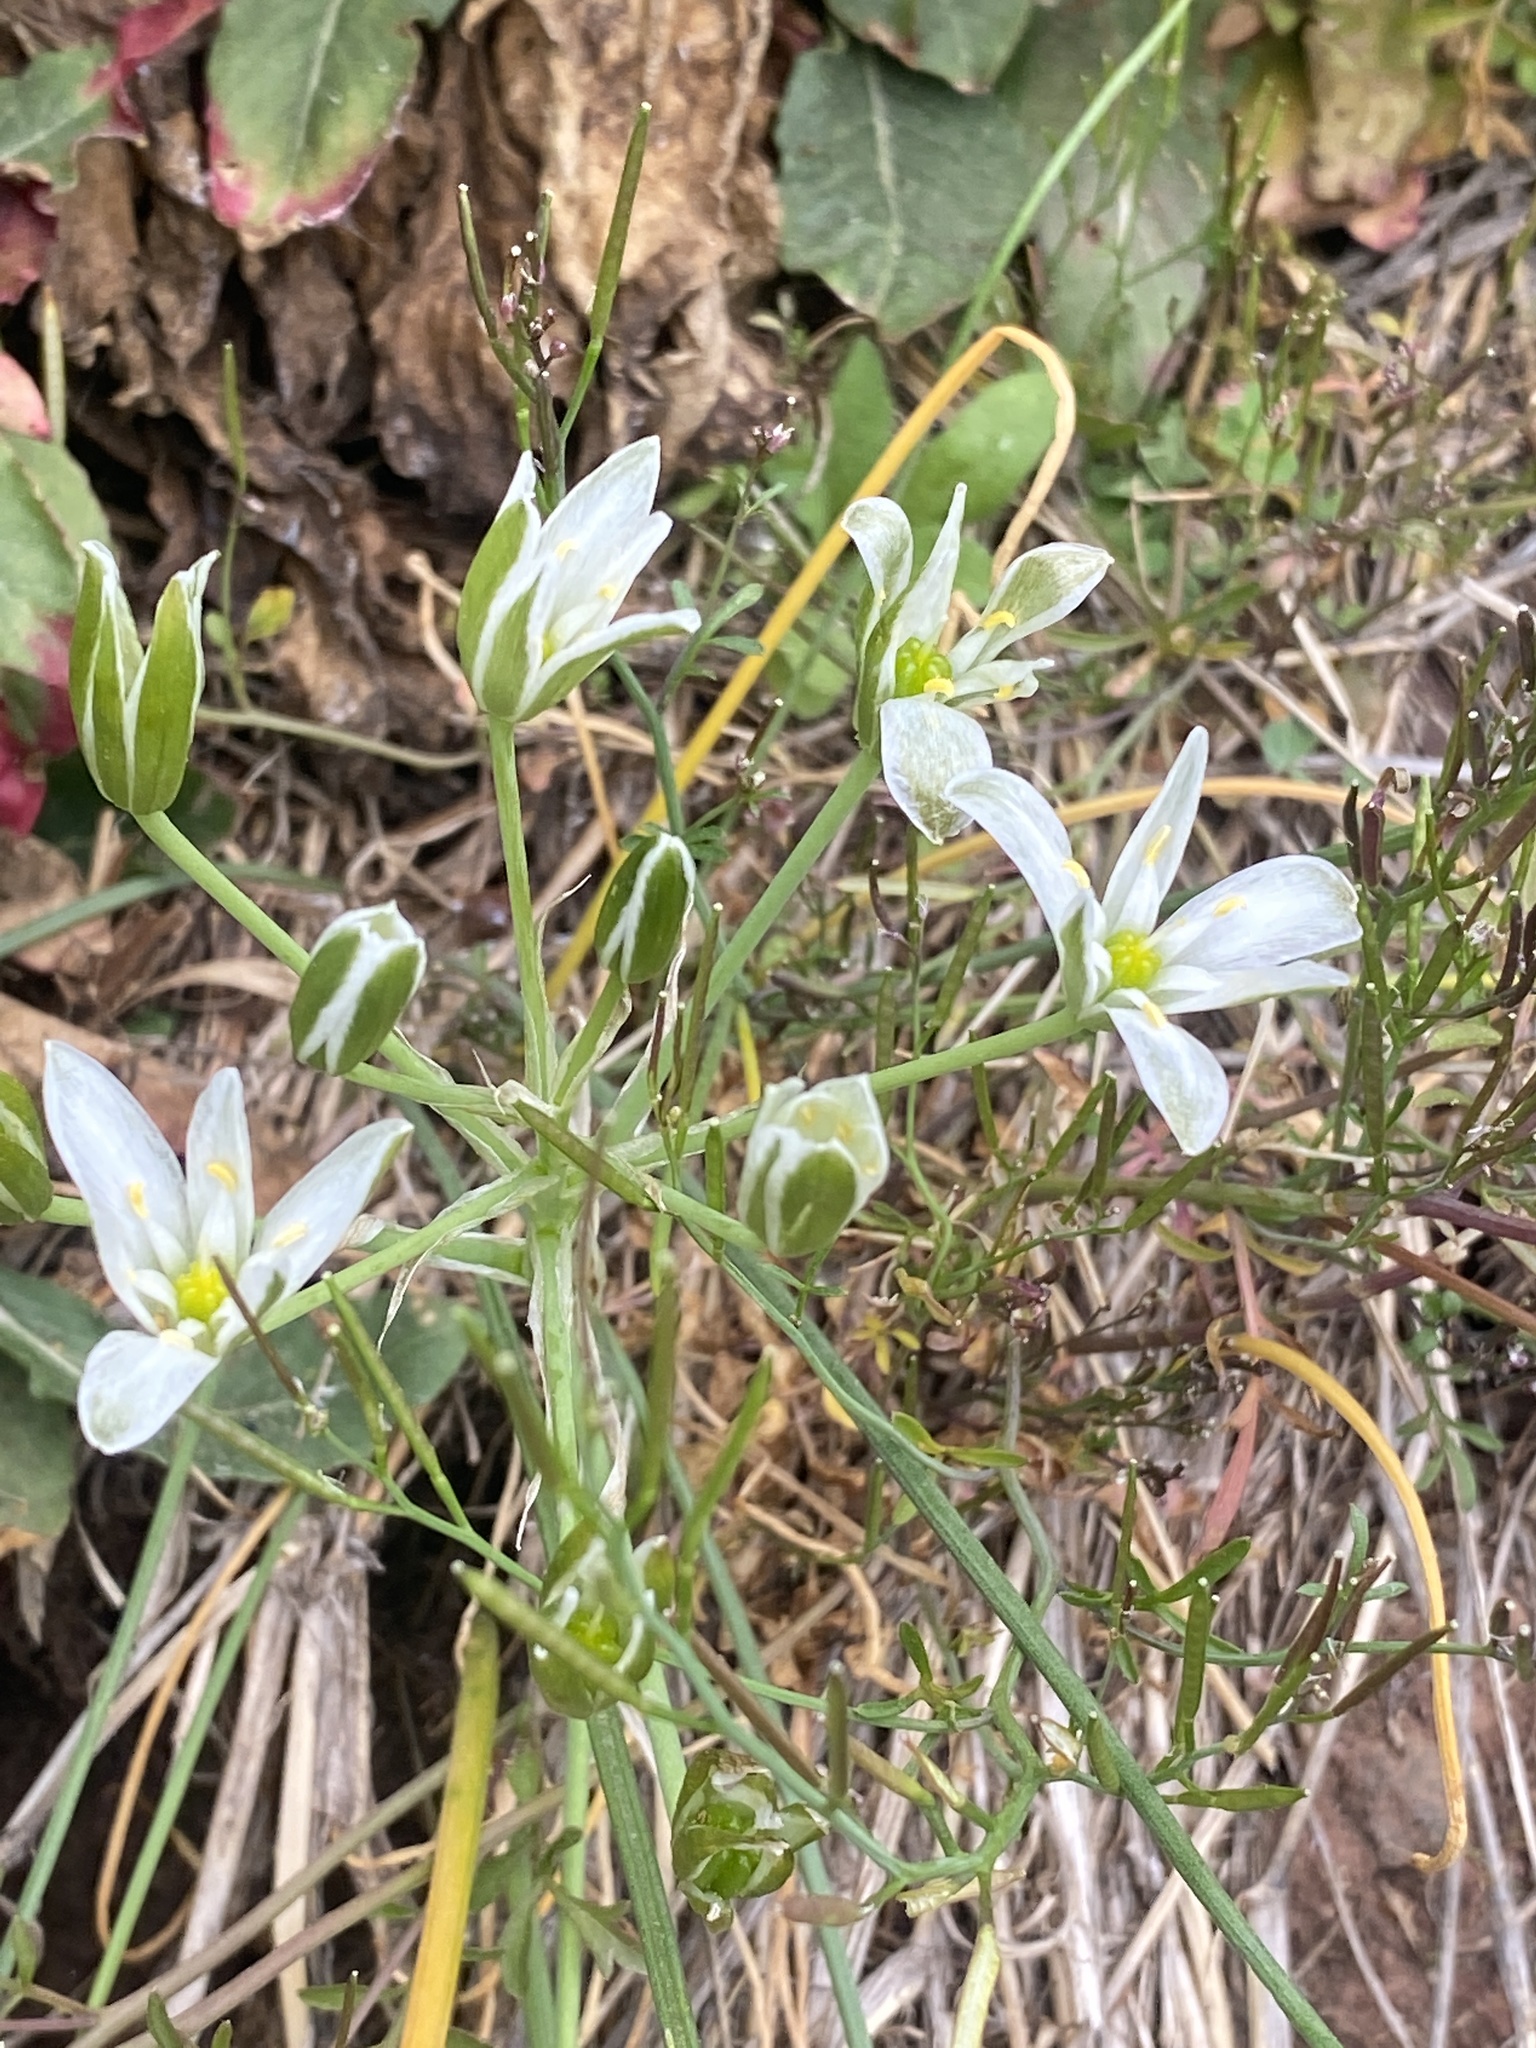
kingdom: Plantae
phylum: Tracheophyta
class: Liliopsida
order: Asparagales
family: Asparagaceae
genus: Ornithogalum
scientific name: Ornithogalum umbellatum
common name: Garden star-of-bethlehem
